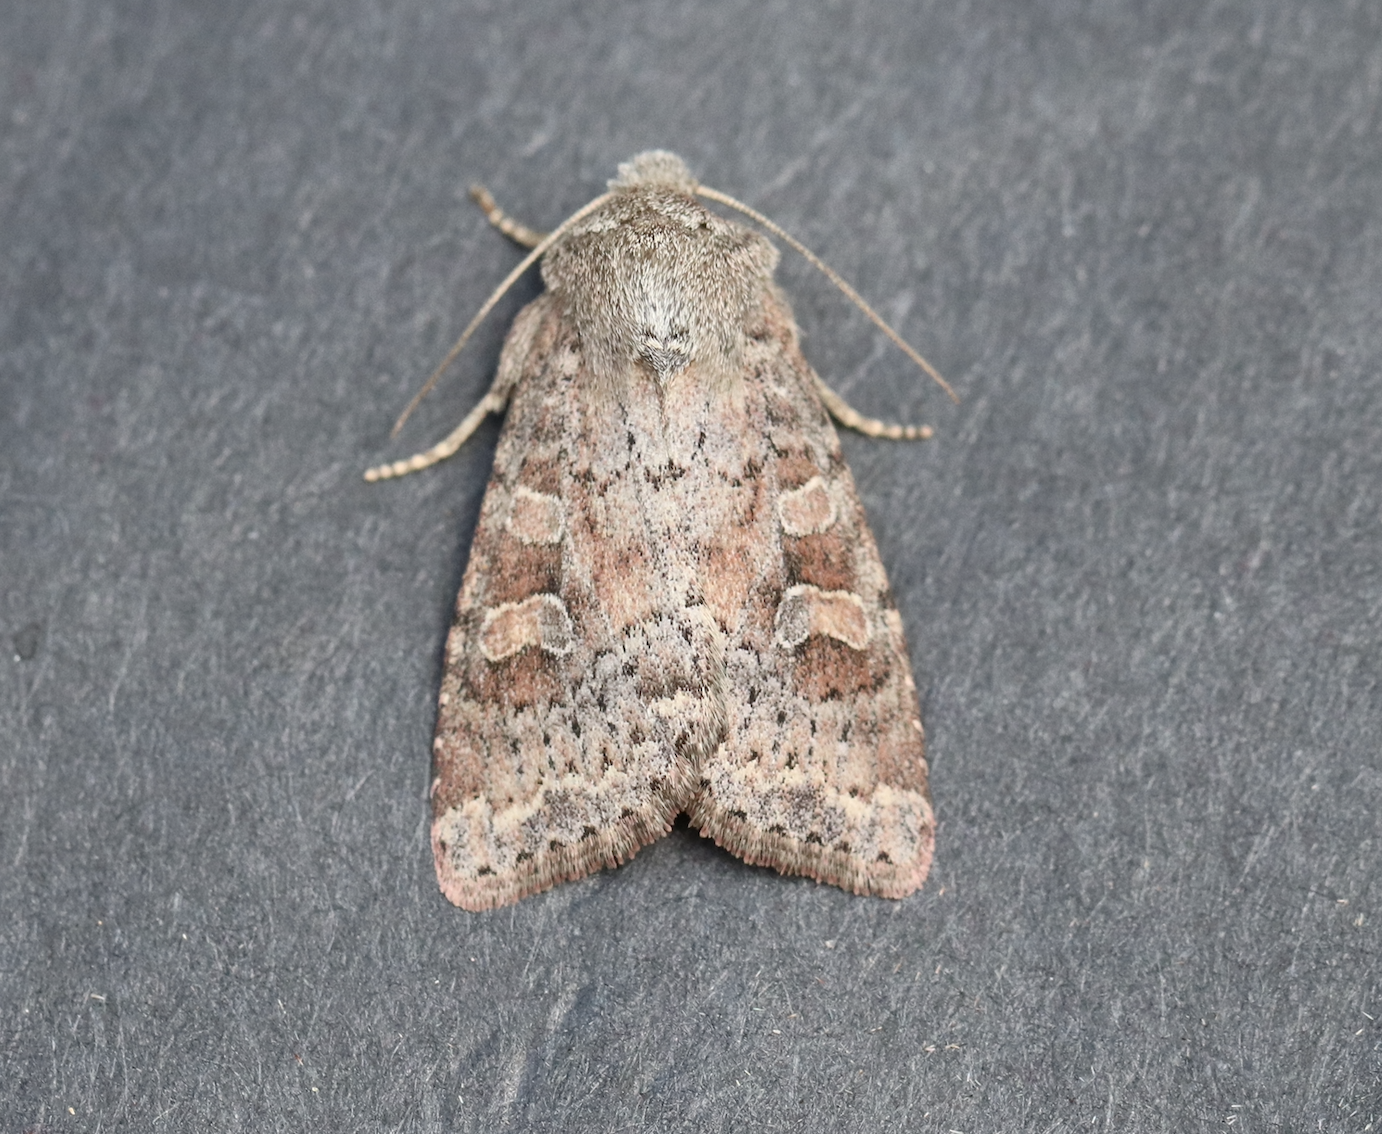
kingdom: Animalia
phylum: Arthropoda
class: Insecta
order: Lepidoptera
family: Noctuidae
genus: Parastichtis
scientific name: Parastichtis suspecta
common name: Suspected
